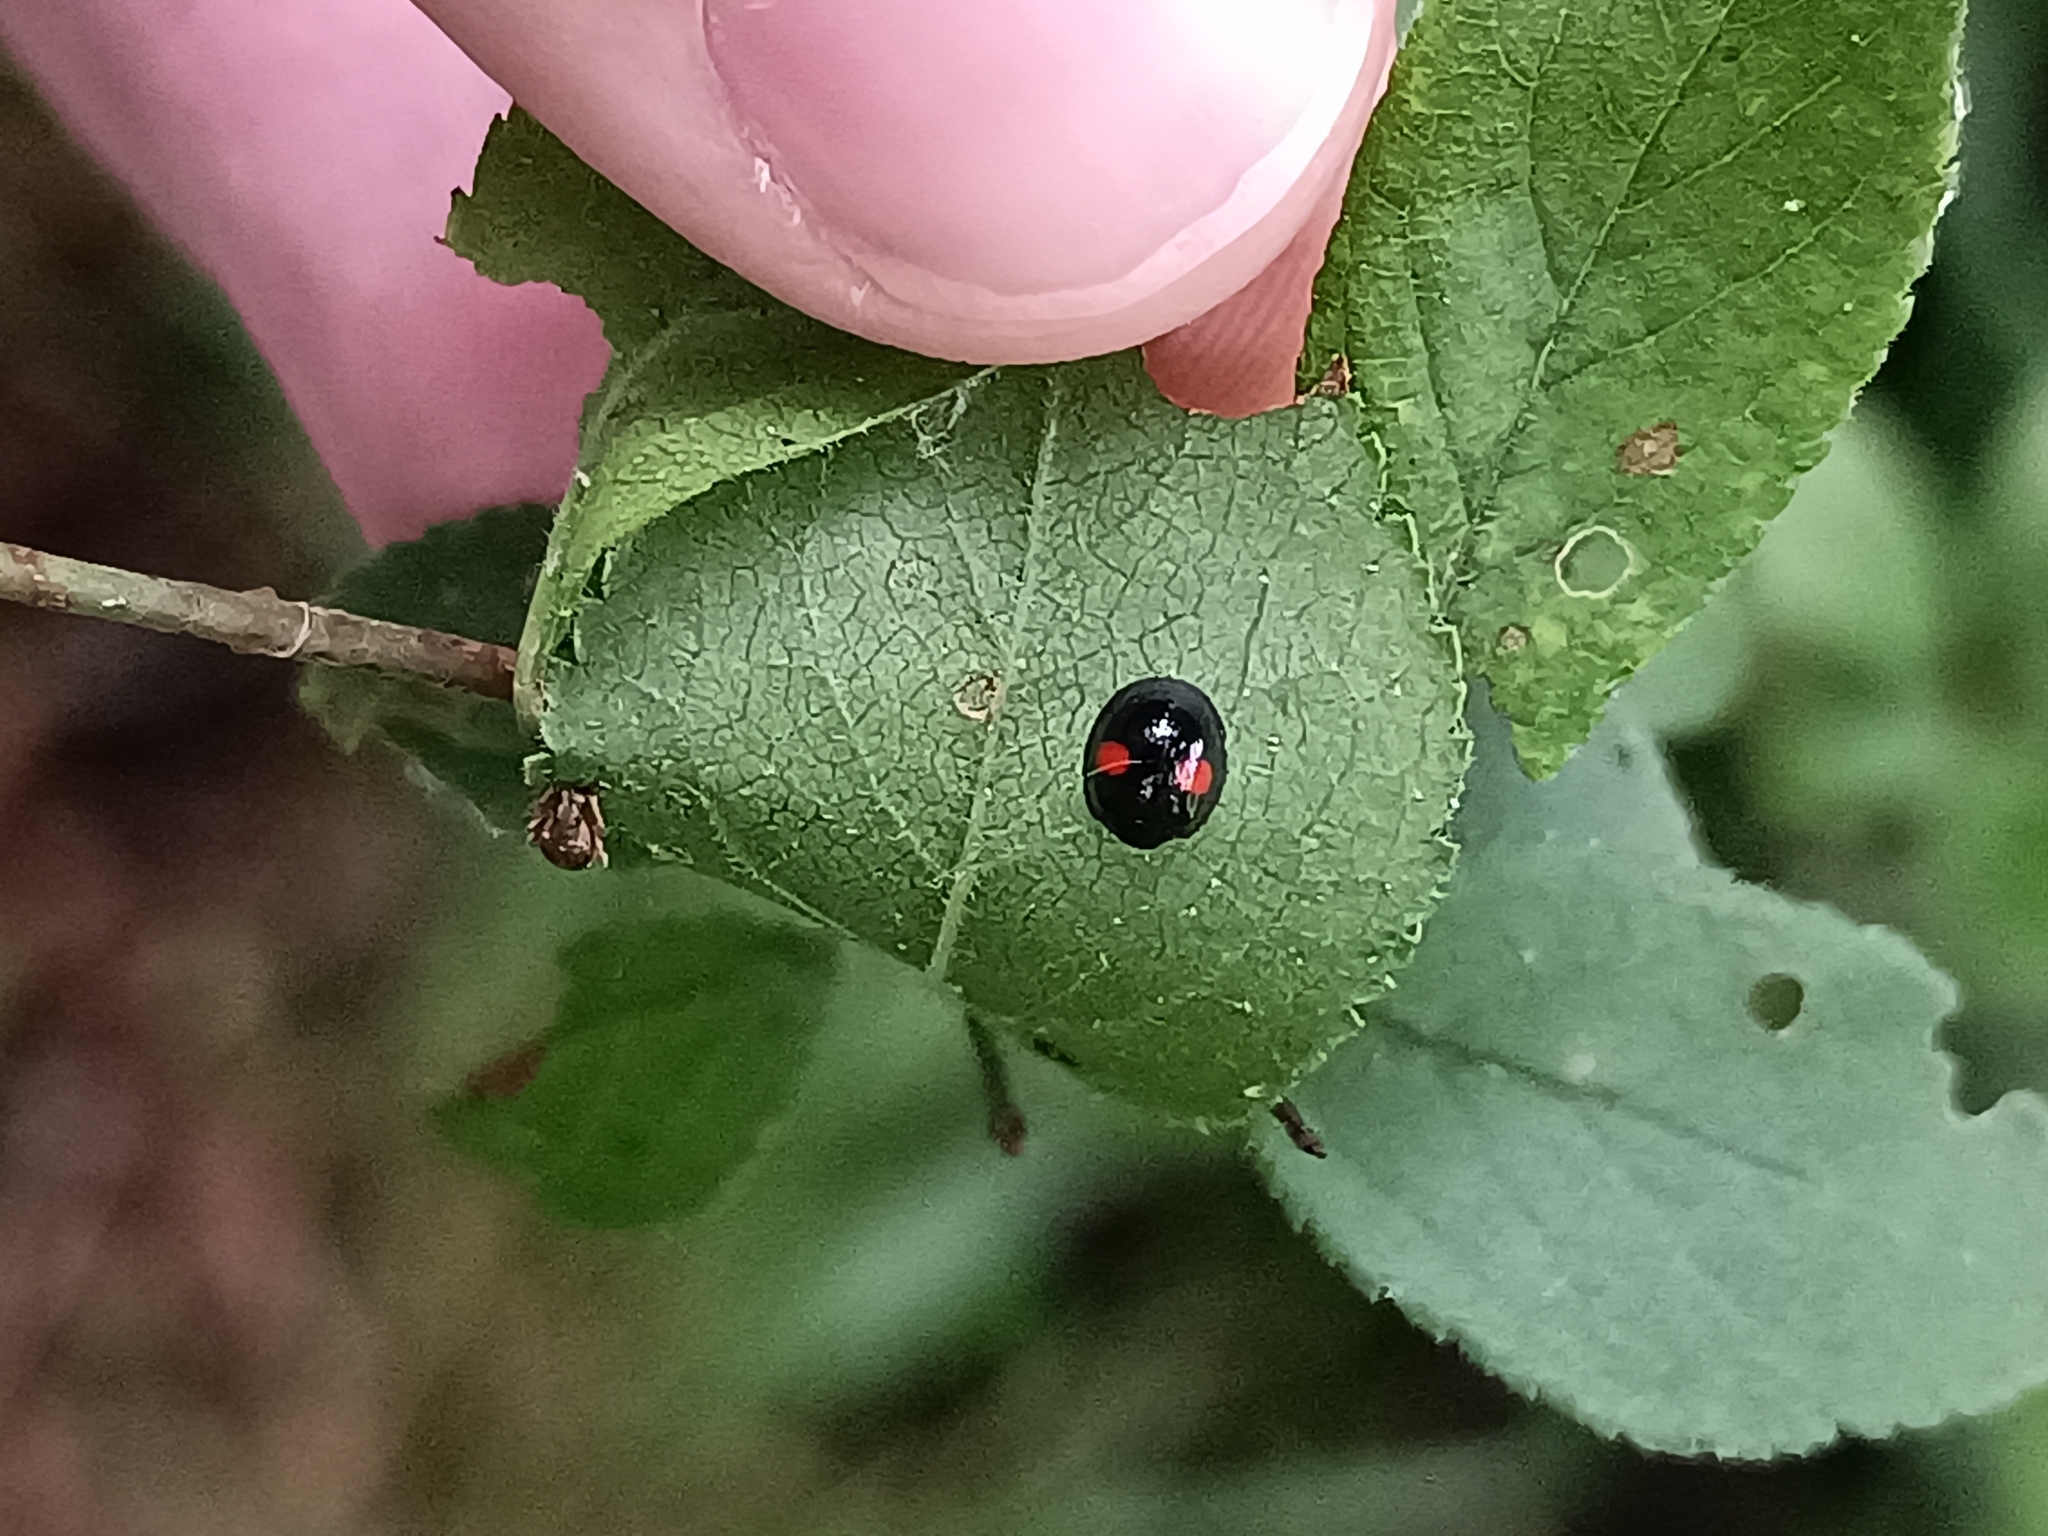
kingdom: Animalia
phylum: Arthropoda
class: Insecta
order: Coleoptera
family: Coccinellidae
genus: Chilocorus
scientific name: Chilocorus renipustulatus
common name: Kidney-spot ladybird
